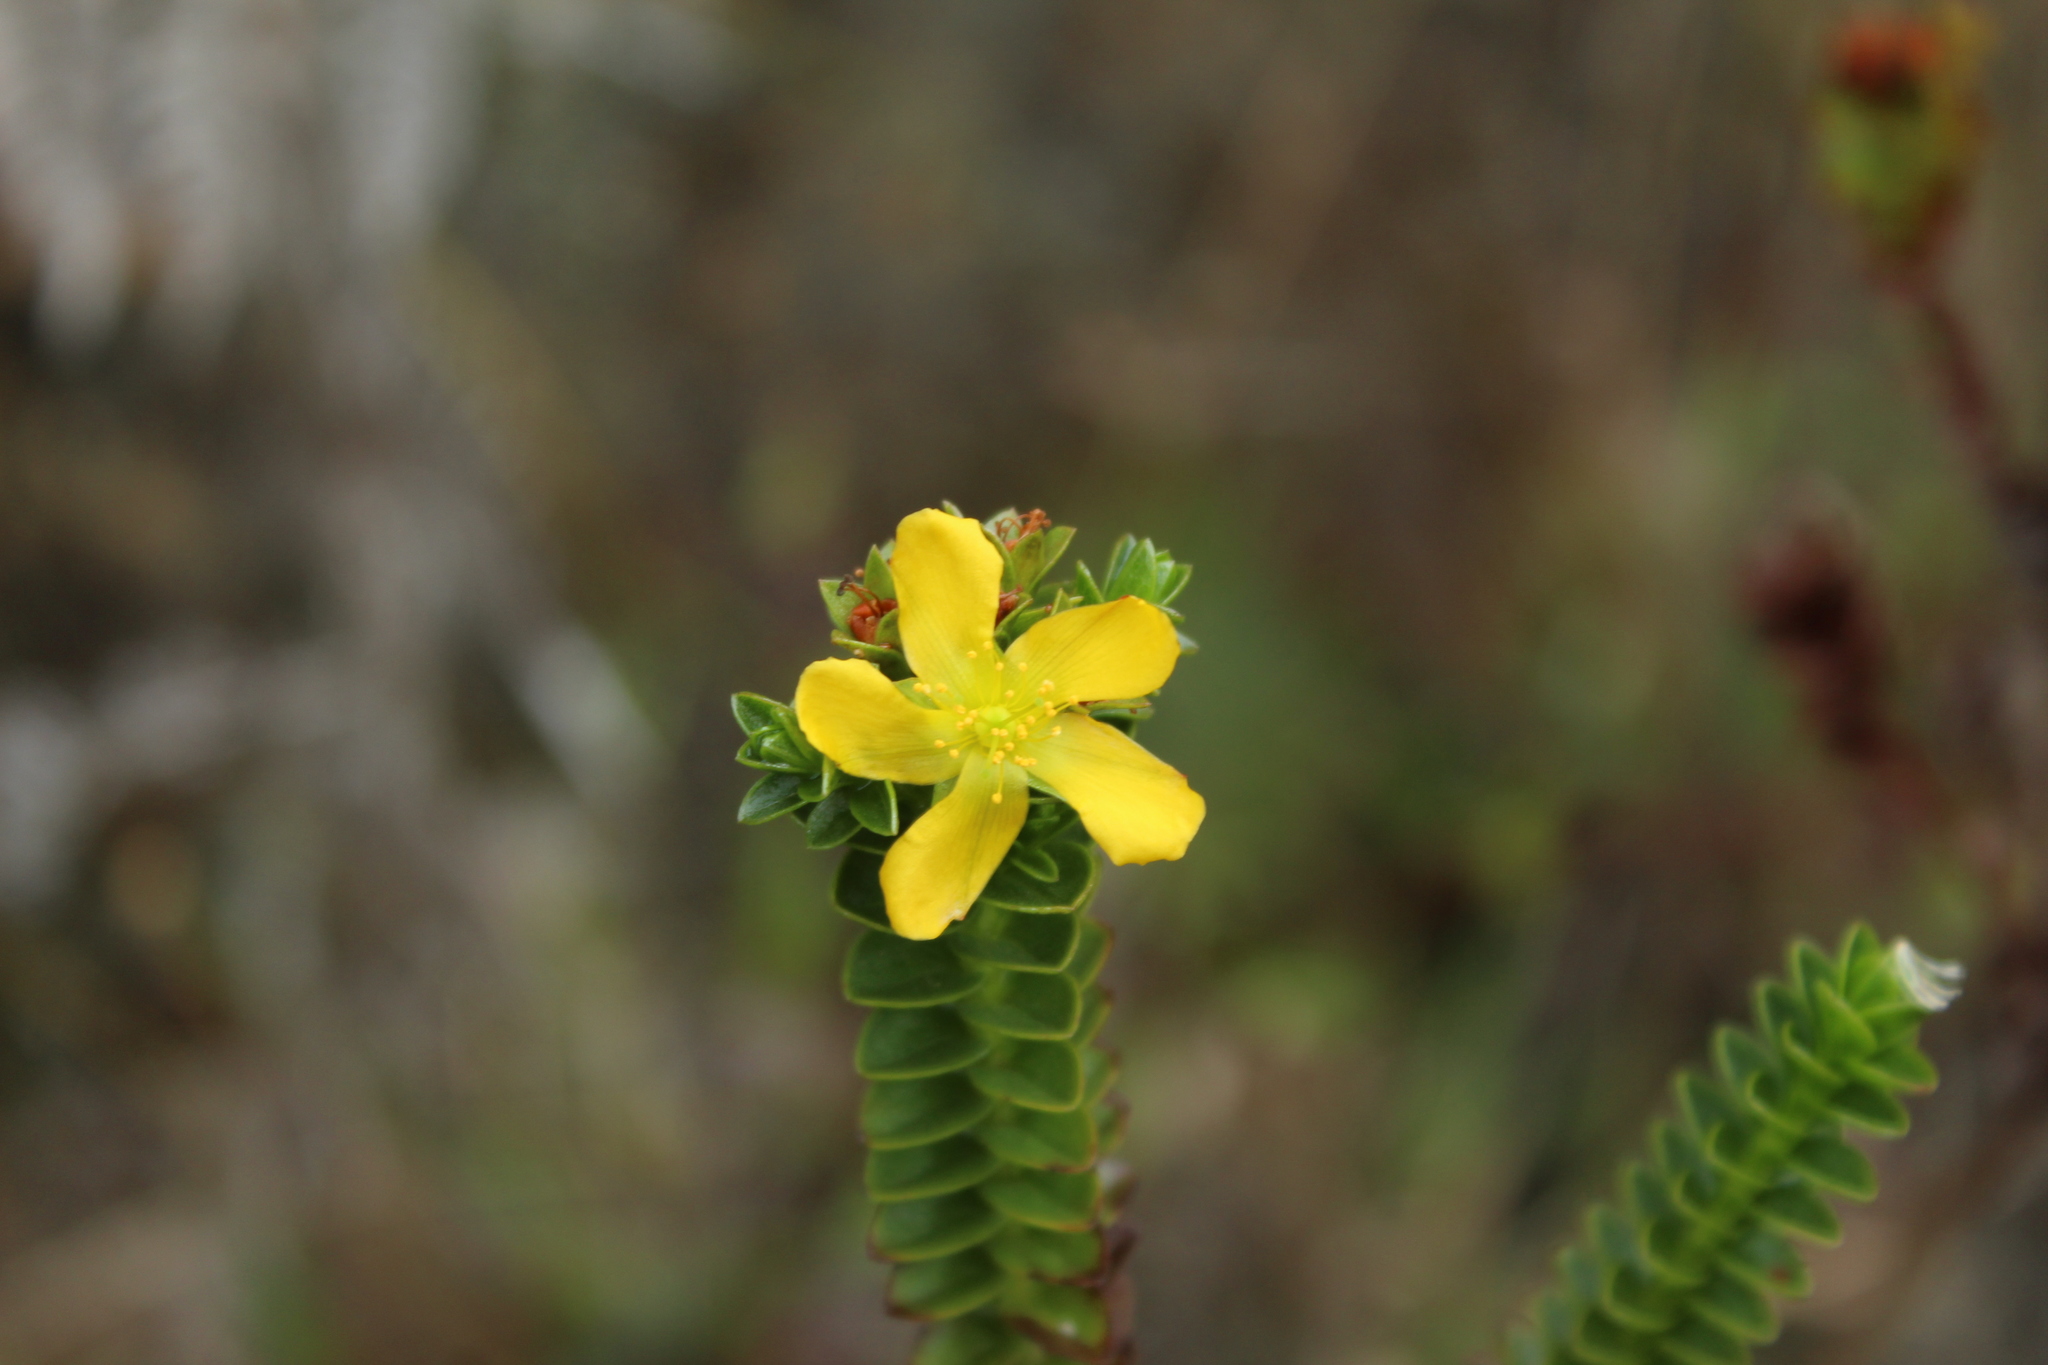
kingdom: Plantae
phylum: Tracheophyta
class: Magnoliopsida
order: Malpighiales
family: Hypericaceae
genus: Hypericum
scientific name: Hypericum mexicanum
